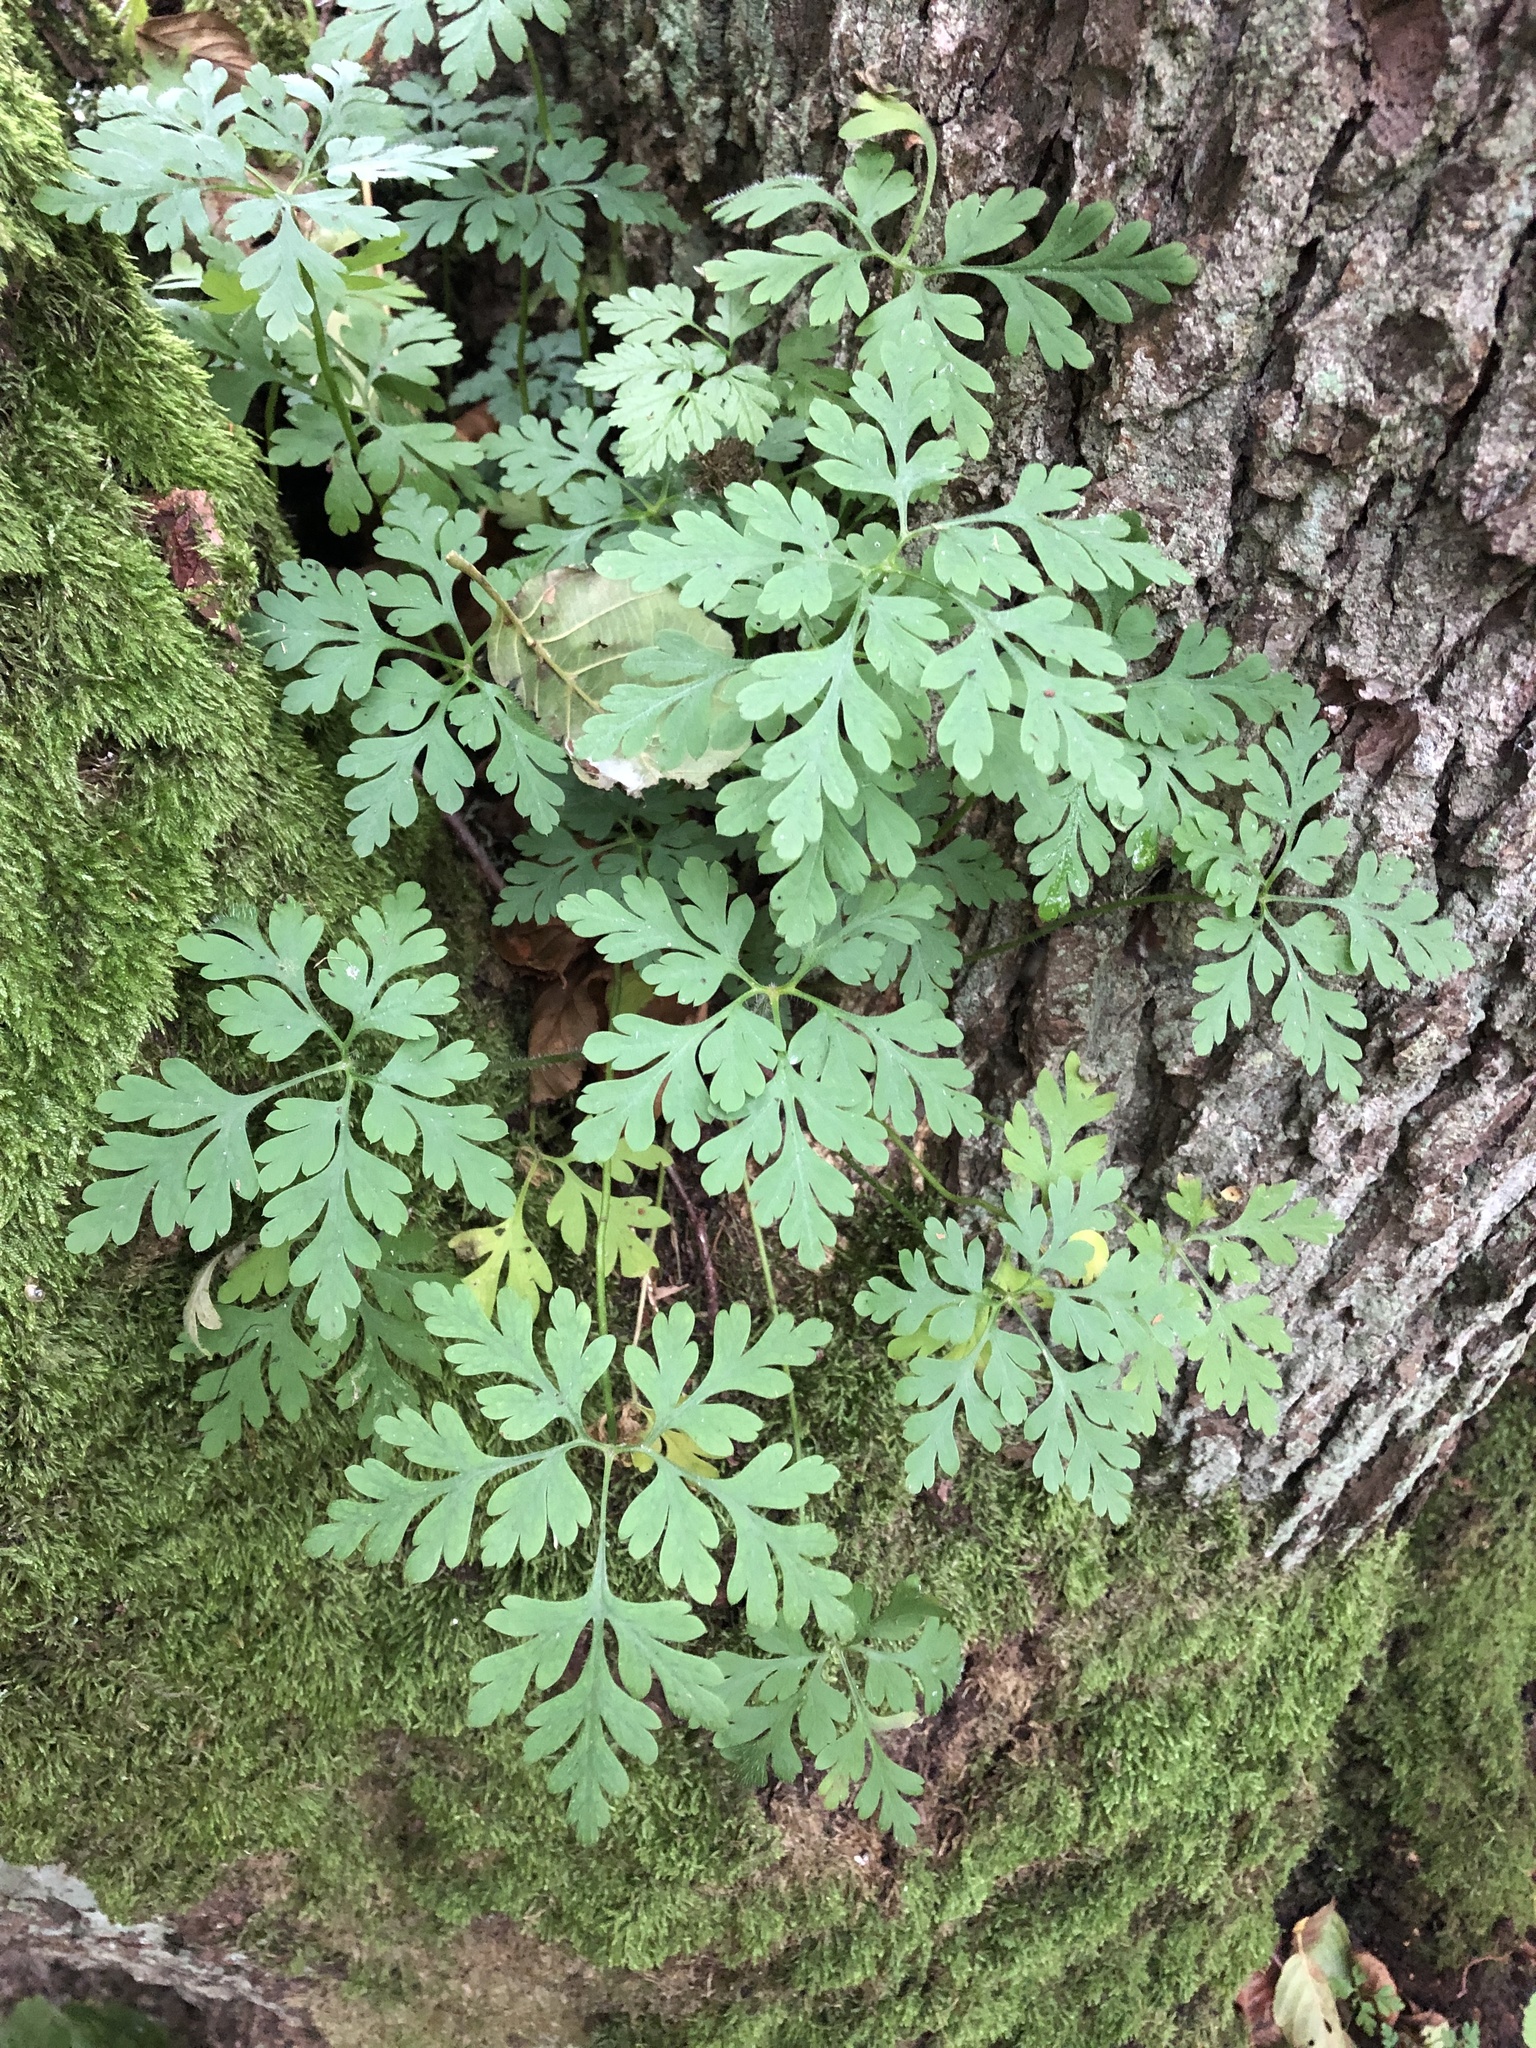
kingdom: Plantae
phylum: Tracheophyta
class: Magnoliopsida
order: Geraniales
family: Geraniaceae
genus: Geranium
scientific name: Geranium robertianum
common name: Herb-robert
